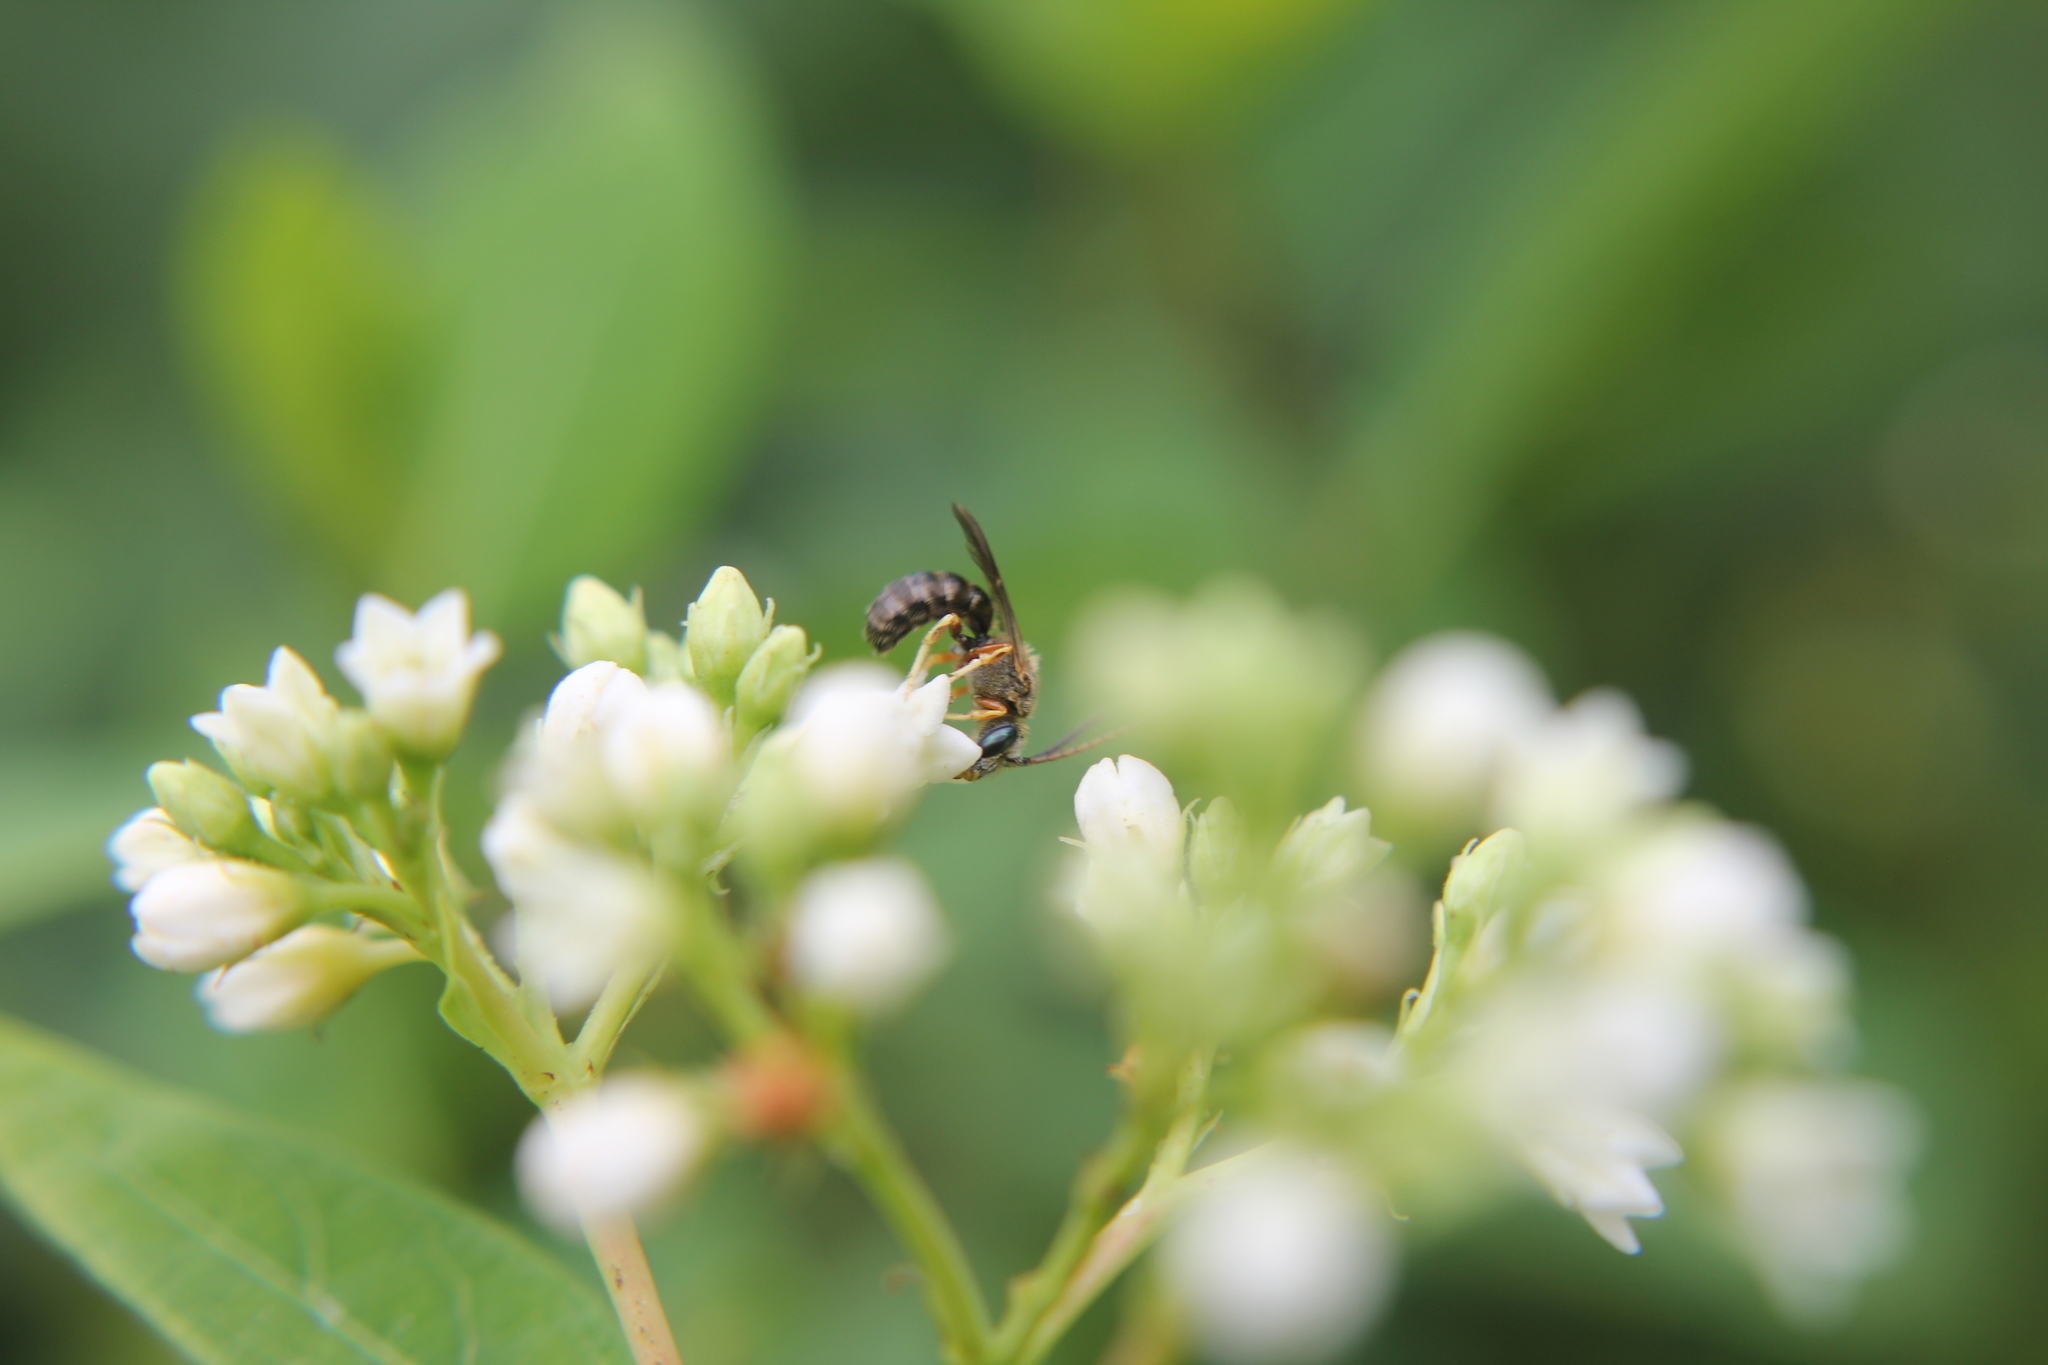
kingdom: Animalia
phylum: Arthropoda
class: Insecta
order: Hymenoptera
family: Halictidae
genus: Halictus
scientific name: Halictus confusus
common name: Southern bronze furrow bee
